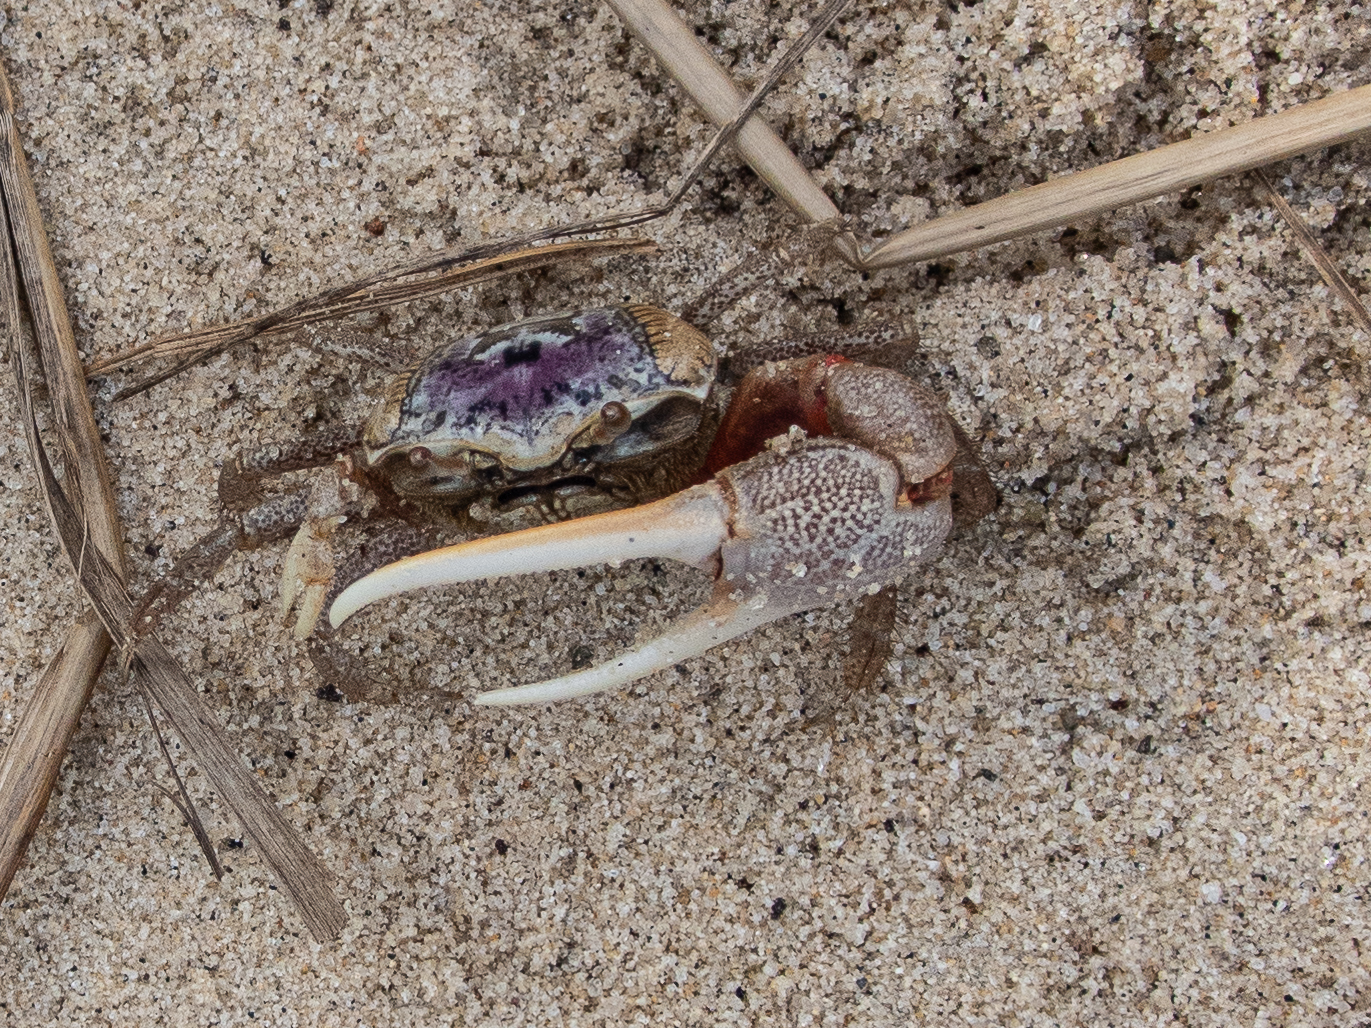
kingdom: Animalia
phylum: Arthropoda
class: Malacostraca
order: Decapoda
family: Ocypodidae
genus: Leptuca
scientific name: Leptuca pugilator
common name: Atlantic sand fiddler crab
